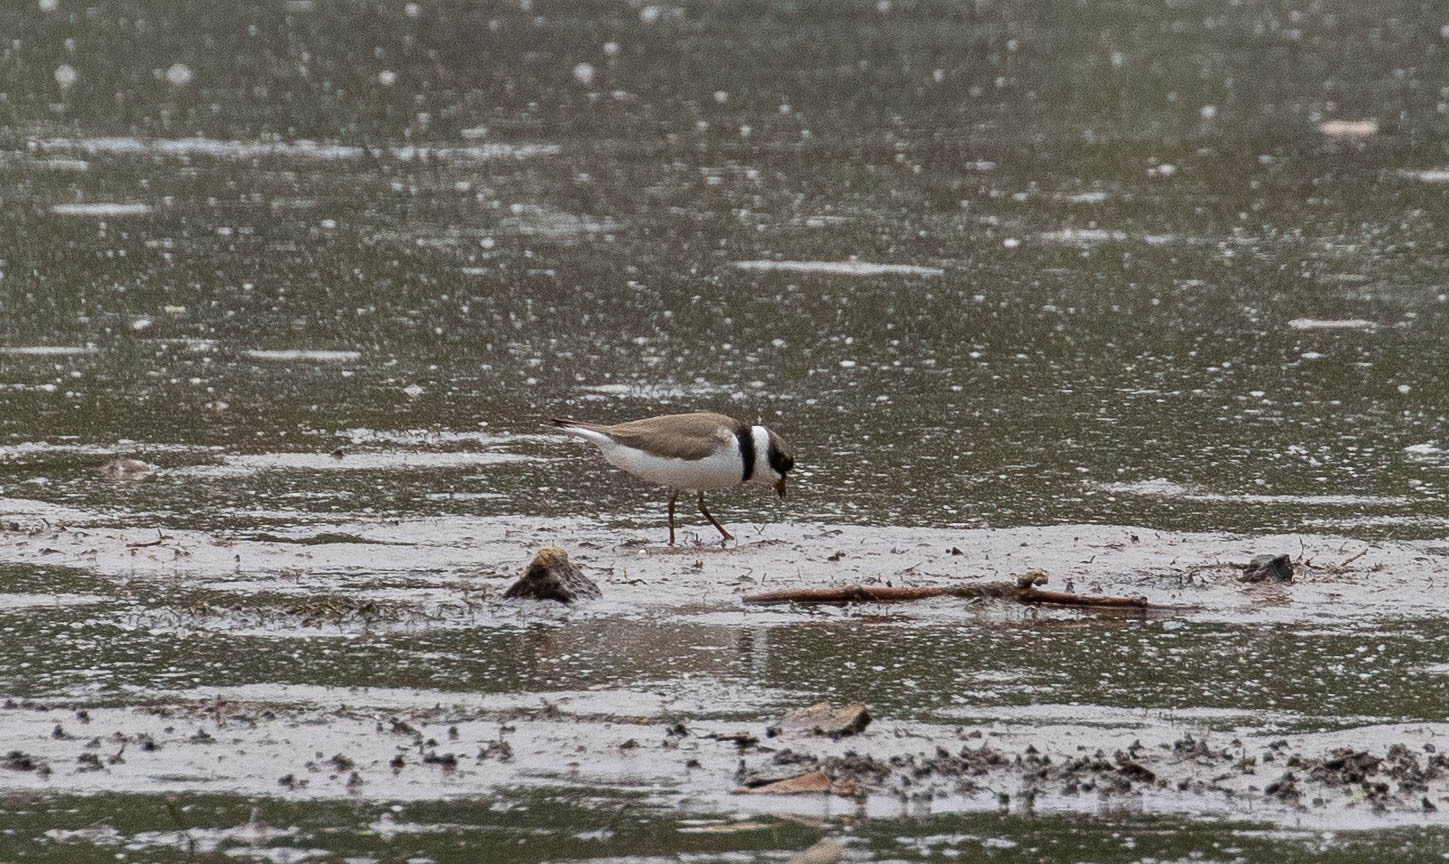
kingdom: Animalia
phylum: Chordata
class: Aves
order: Charadriiformes
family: Charadriidae
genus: Charadrius
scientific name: Charadrius semipalmatus
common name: Semipalmated plover
